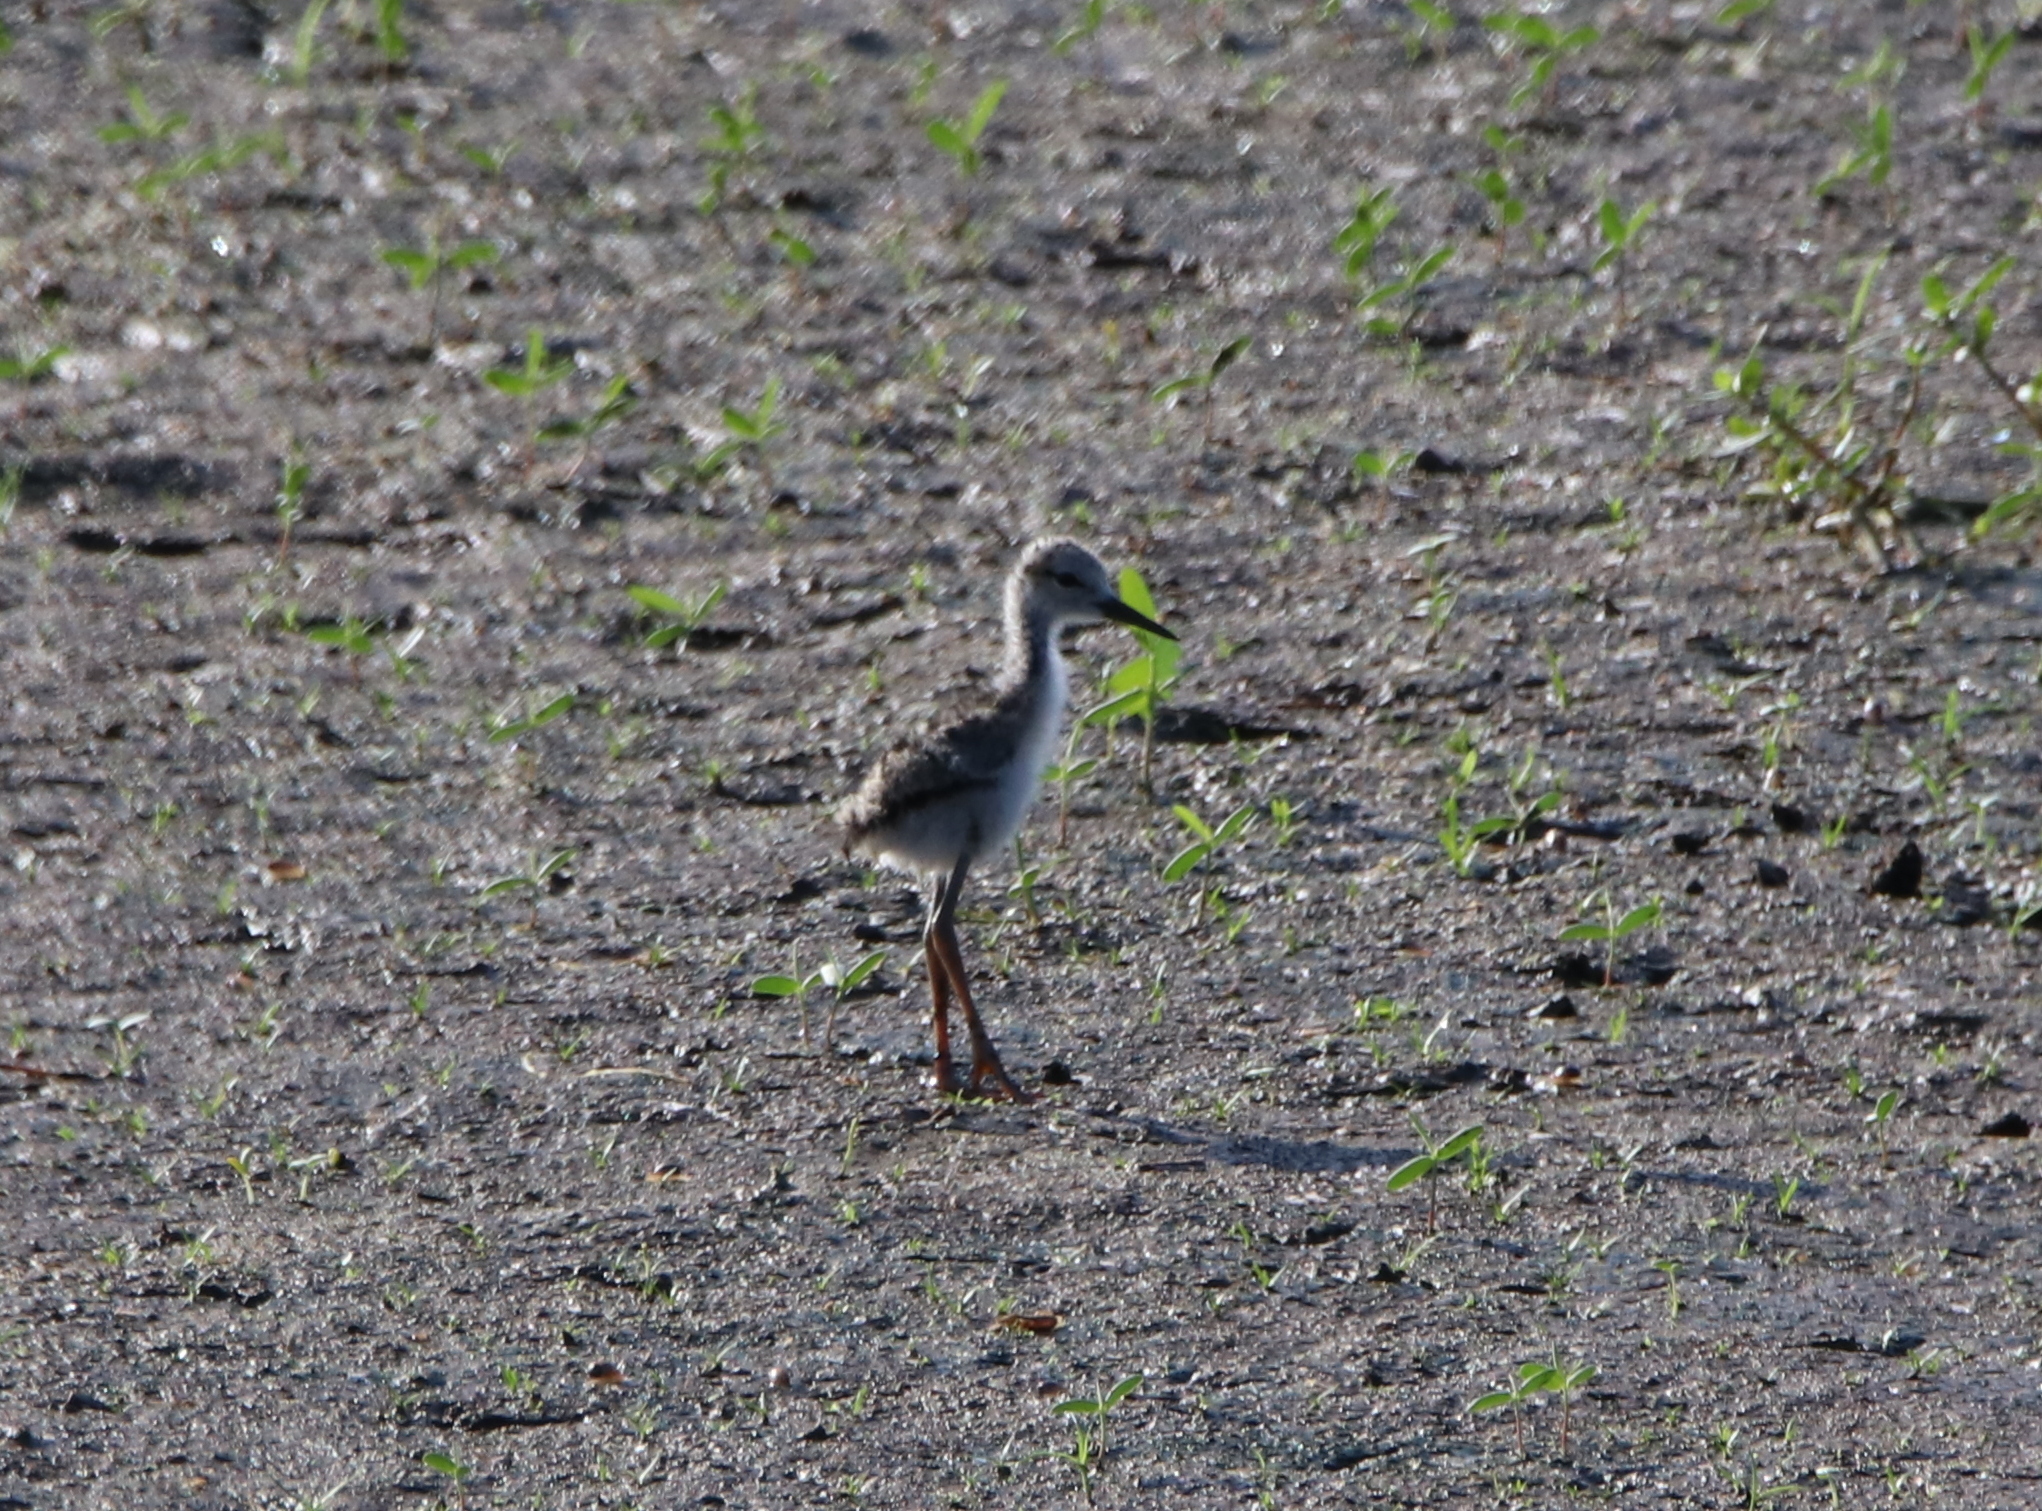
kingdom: Animalia
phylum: Chordata
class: Aves
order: Charadriiformes
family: Recurvirostridae
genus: Himantopus
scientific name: Himantopus mexicanus
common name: Black-necked stilt
